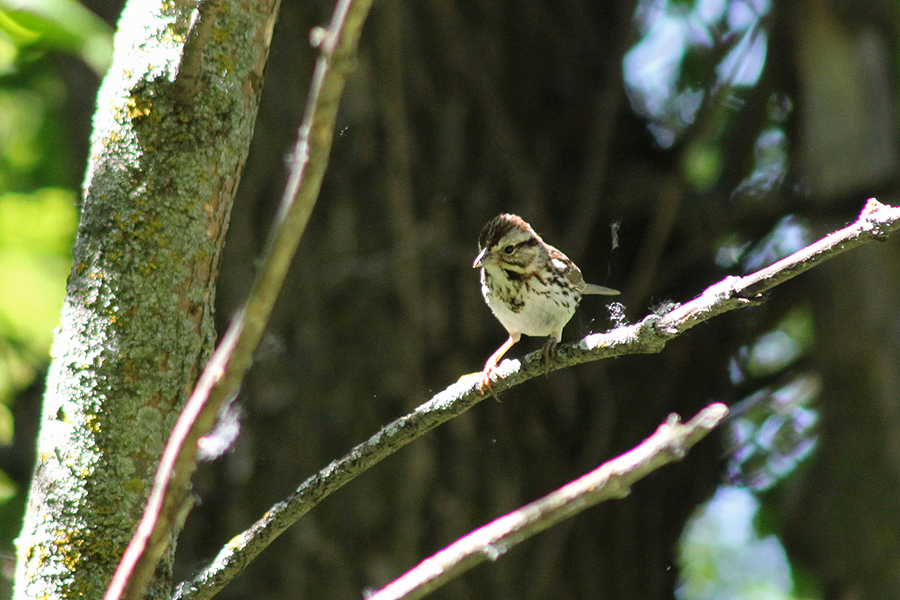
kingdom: Animalia
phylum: Chordata
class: Aves
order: Passeriformes
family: Passerellidae
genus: Melospiza
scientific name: Melospiza melodia
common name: Song sparrow
